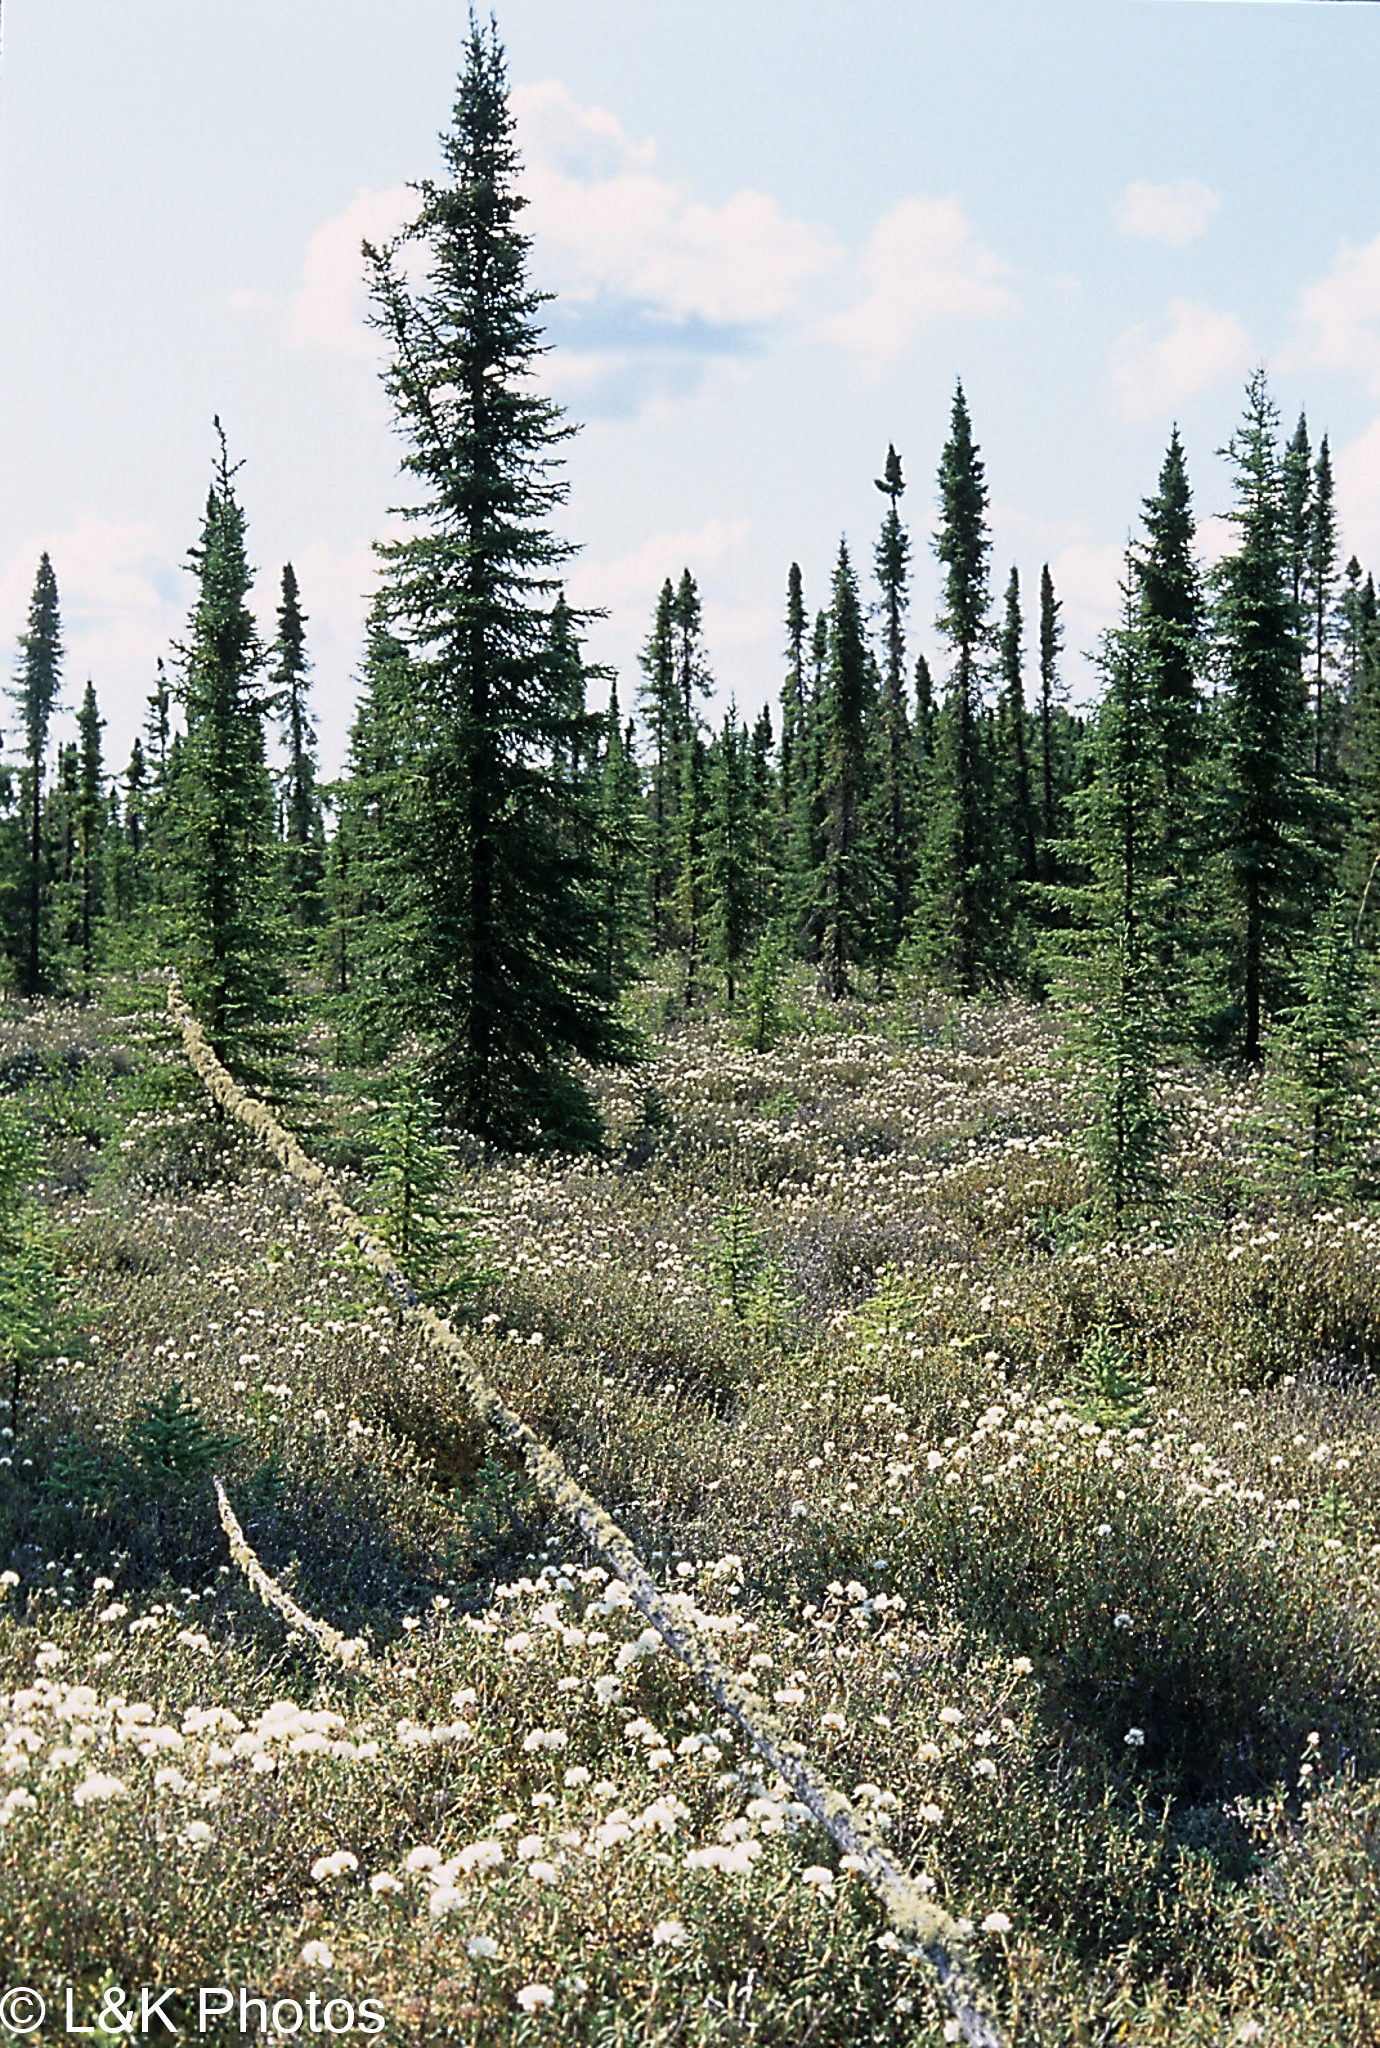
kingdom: Plantae
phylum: Tracheophyta
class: Pinopsida
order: Pinales
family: Pinaceae
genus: Picea
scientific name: Picea mariana
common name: Black spruce
